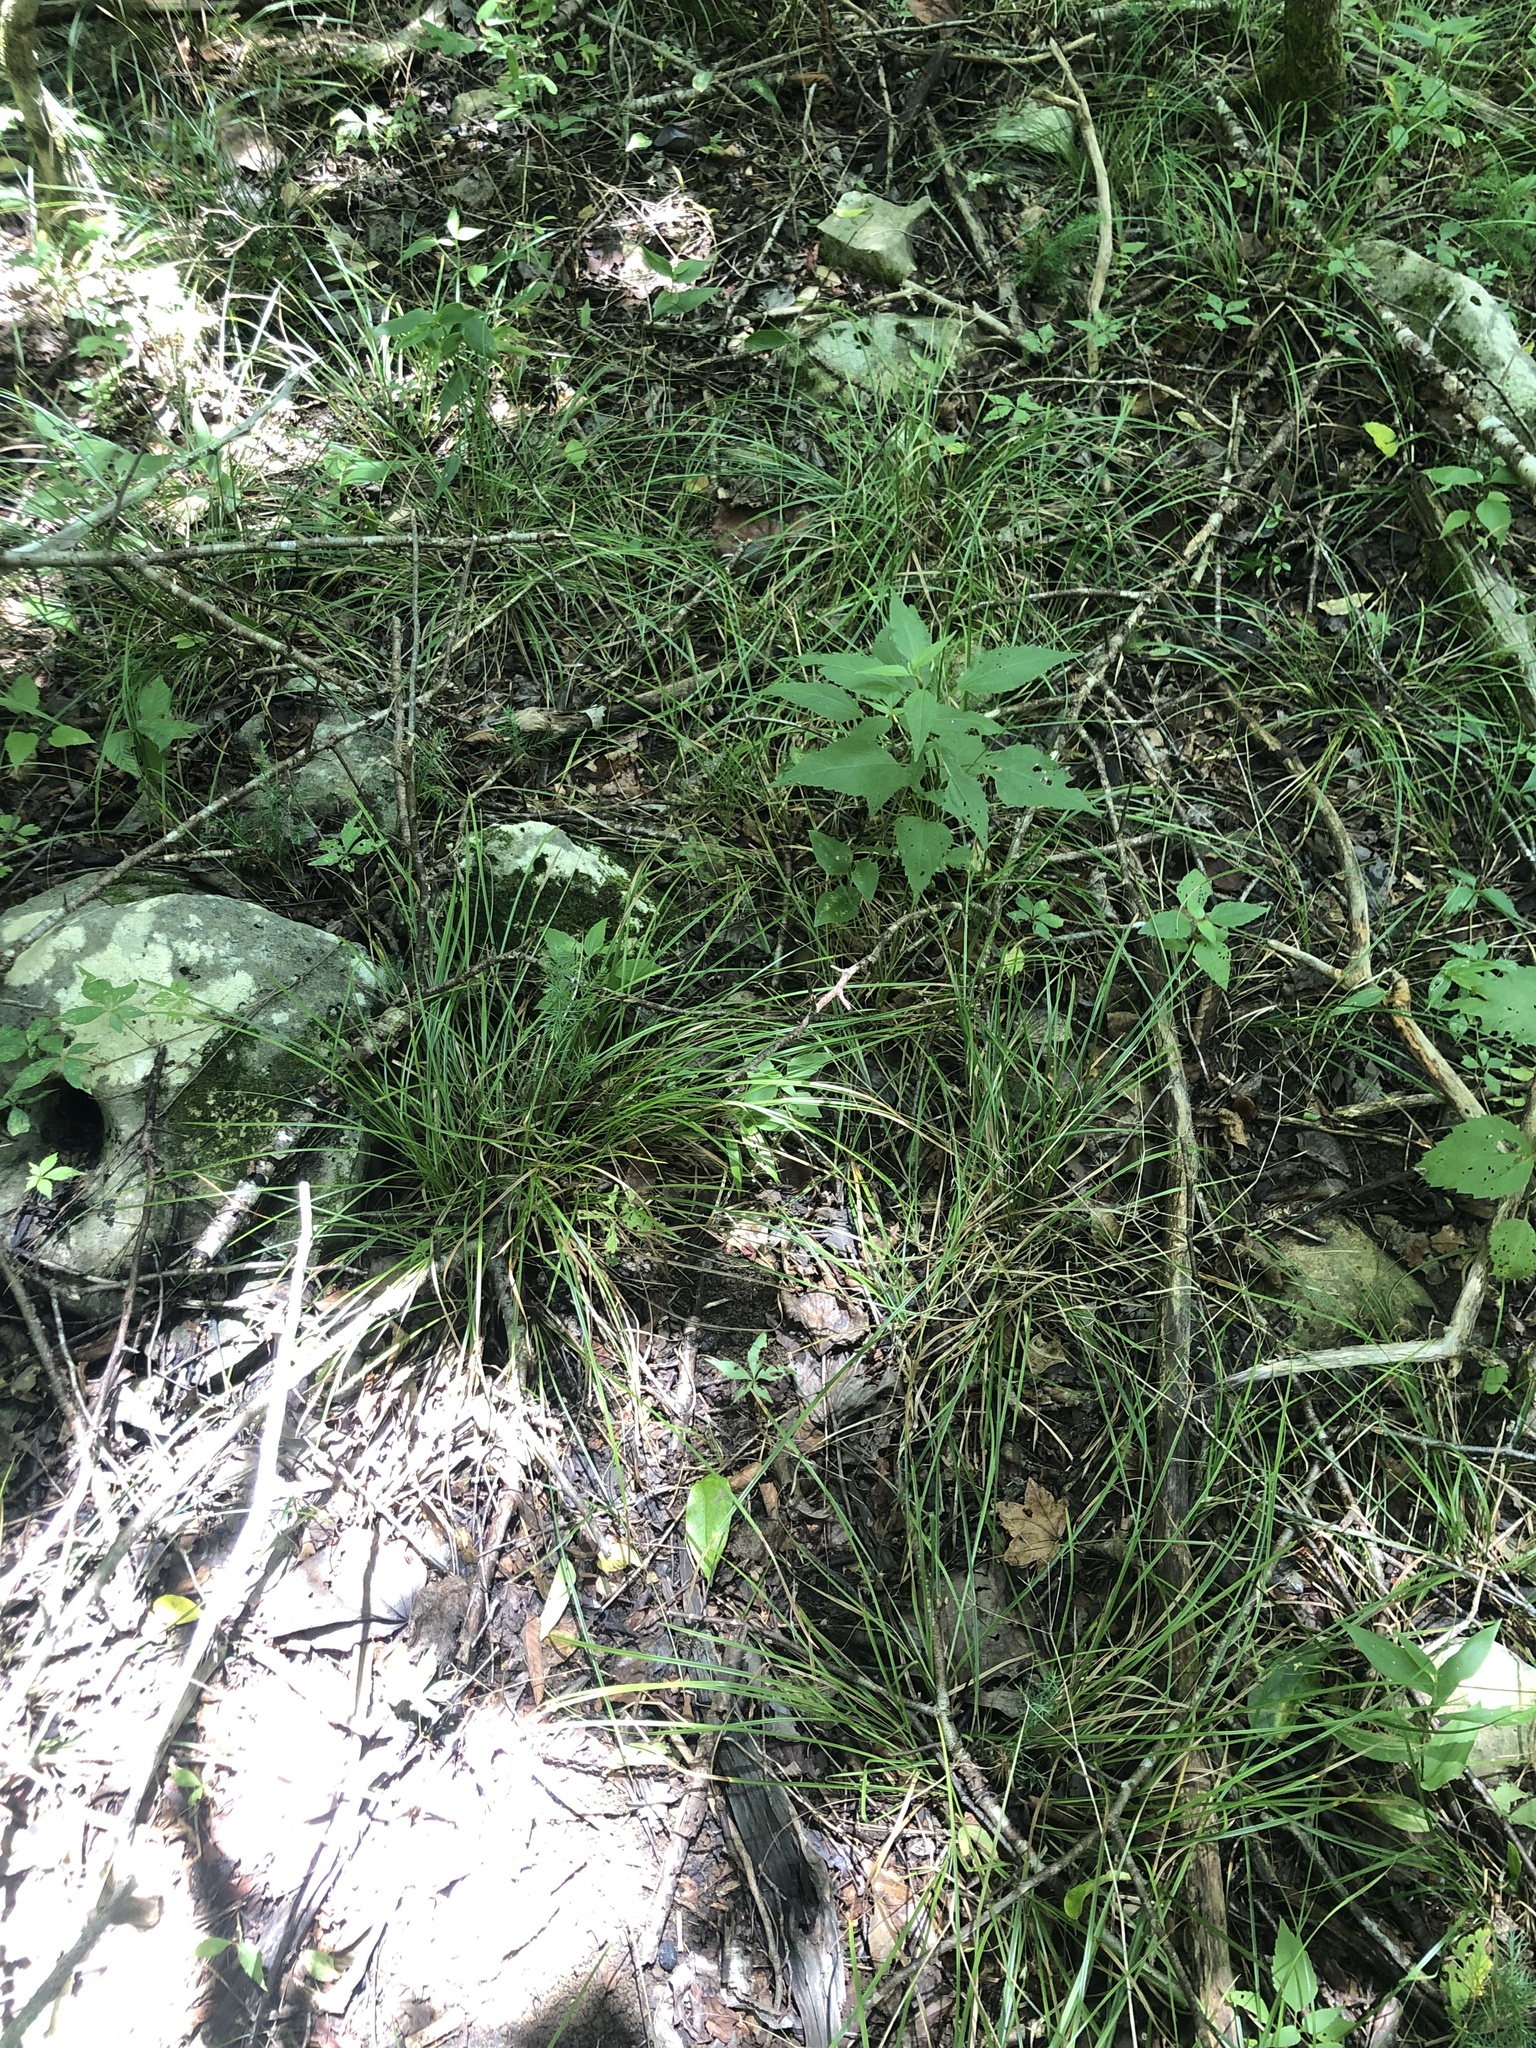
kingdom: Plantae
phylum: Tracheophyta
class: Liliopsida
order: Poales
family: Cyperaceae
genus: Carex
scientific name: Carex superata
